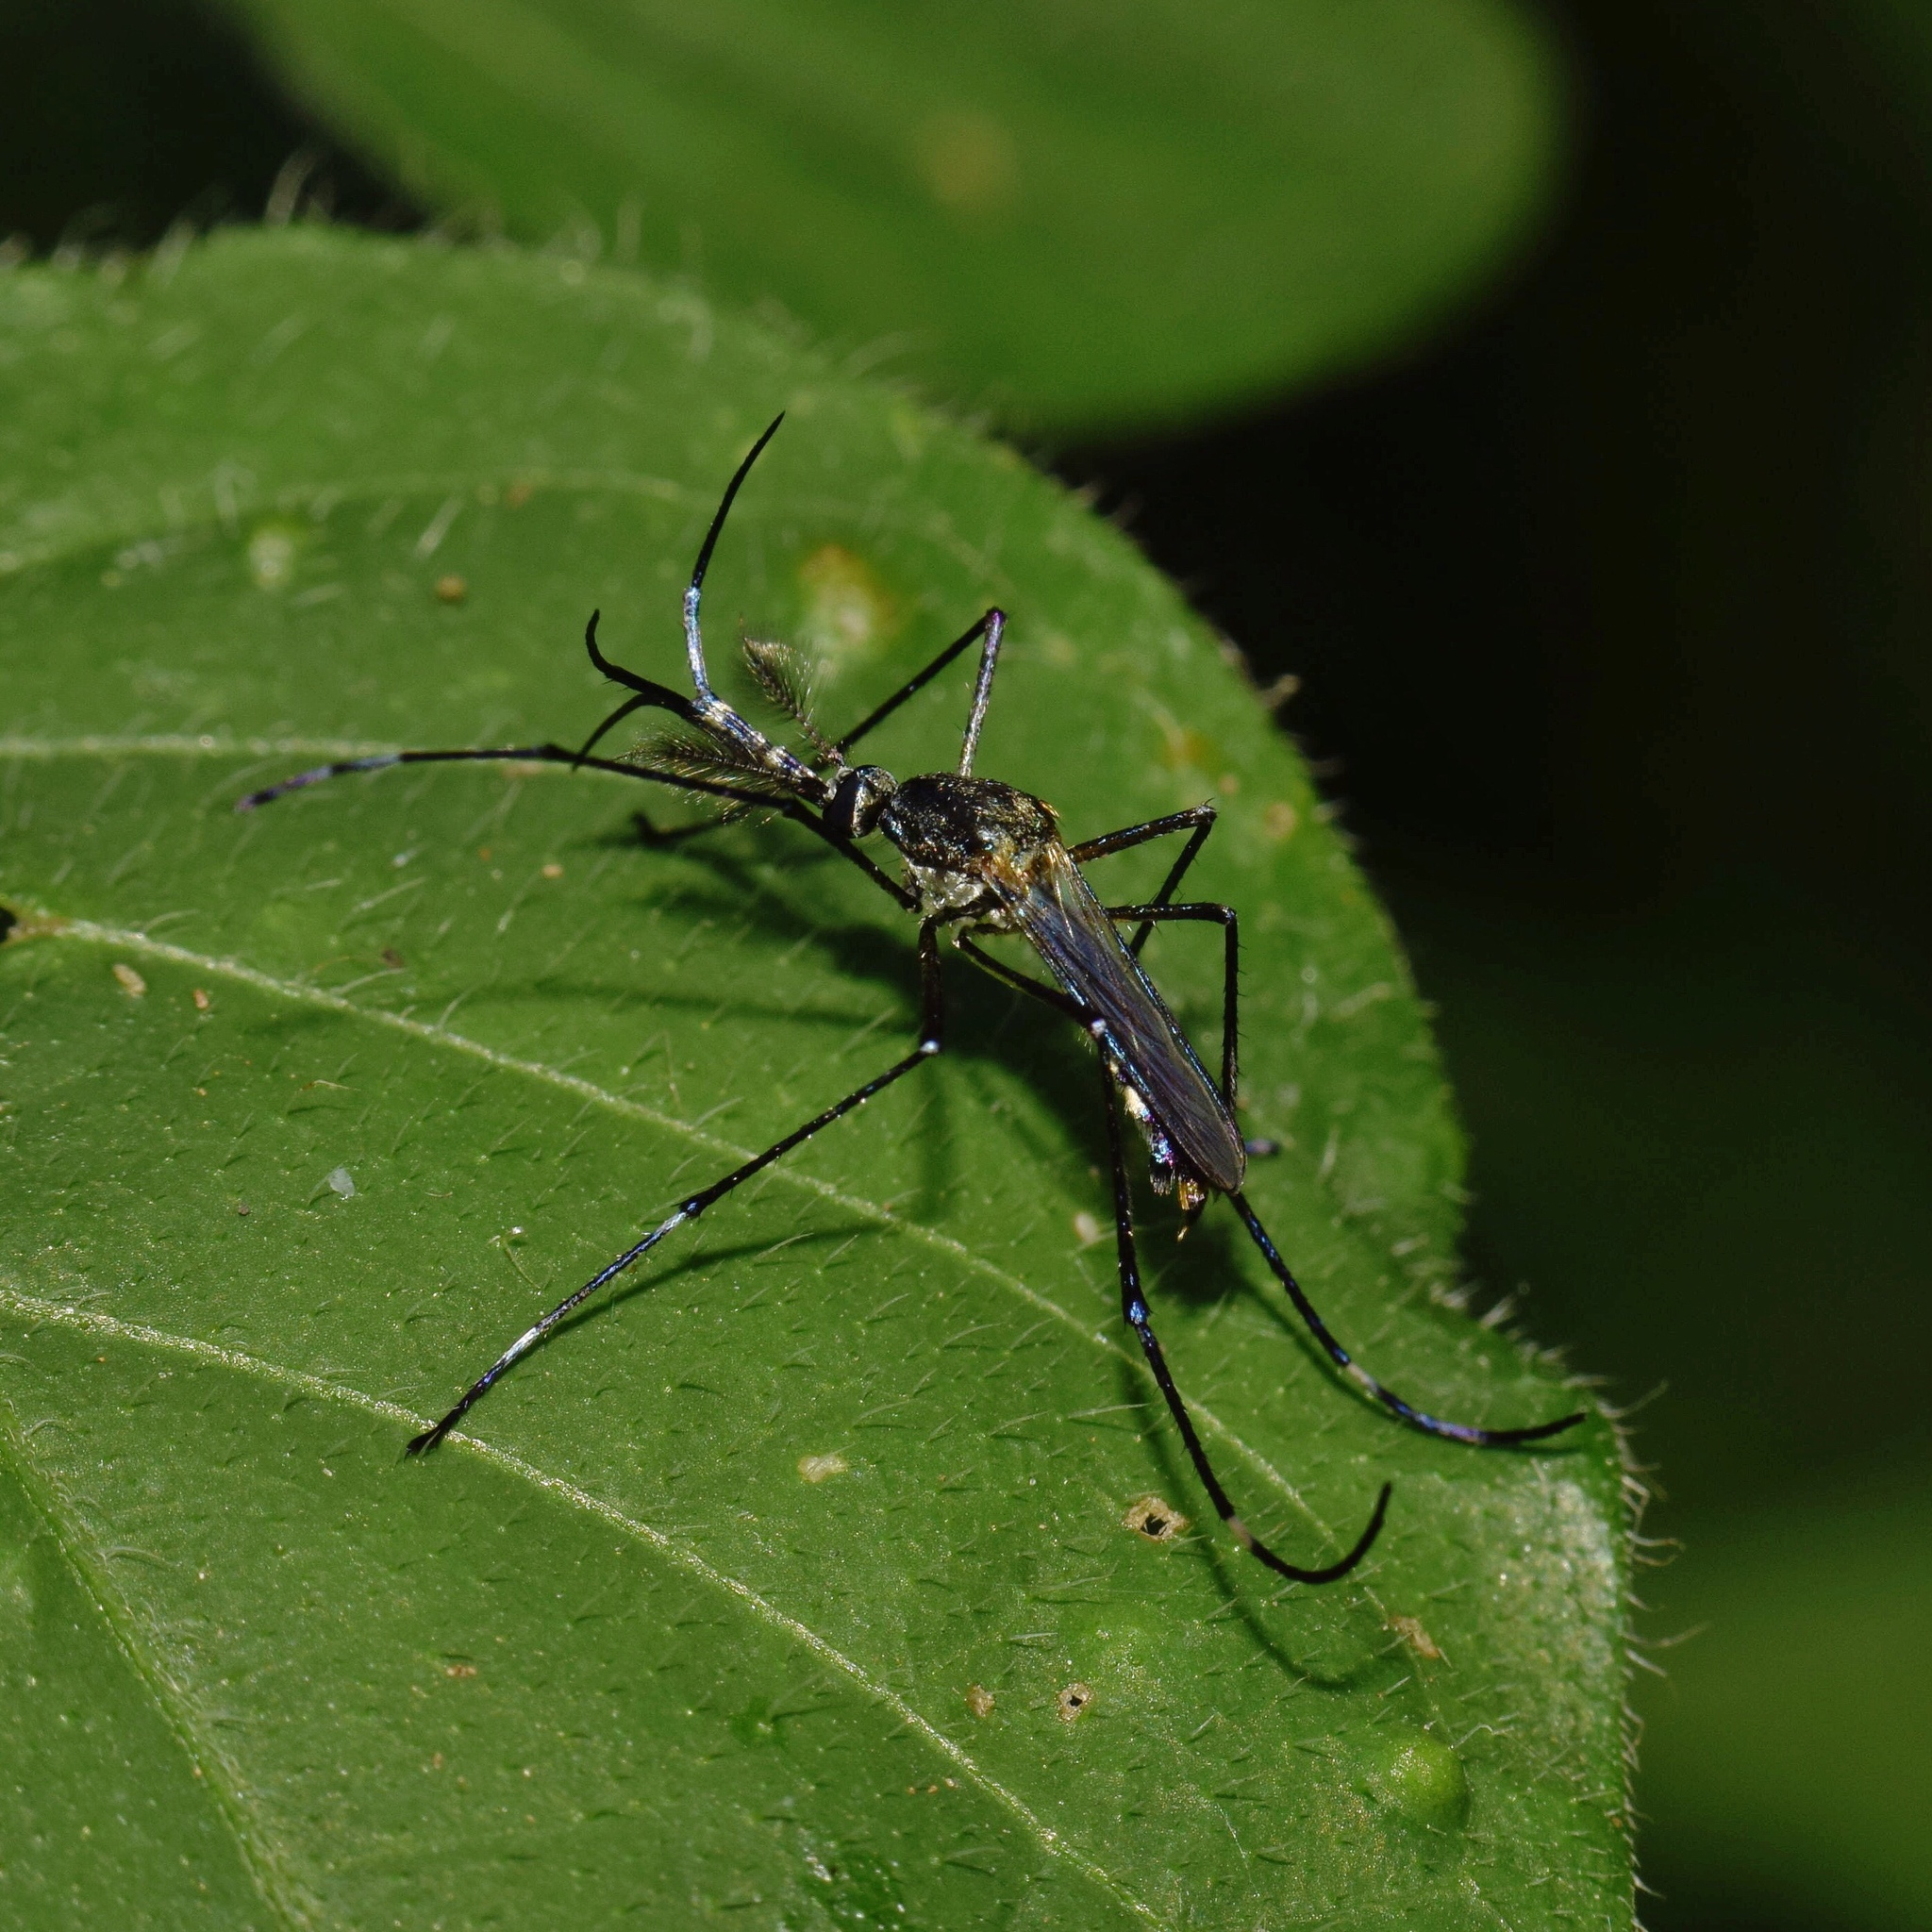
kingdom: Animalia
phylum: Arthropoda
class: Insecta
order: Diptera
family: Culicidae
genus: Toxorhynchites
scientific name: Toxorhynchites brevipalpis
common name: Mosquito
